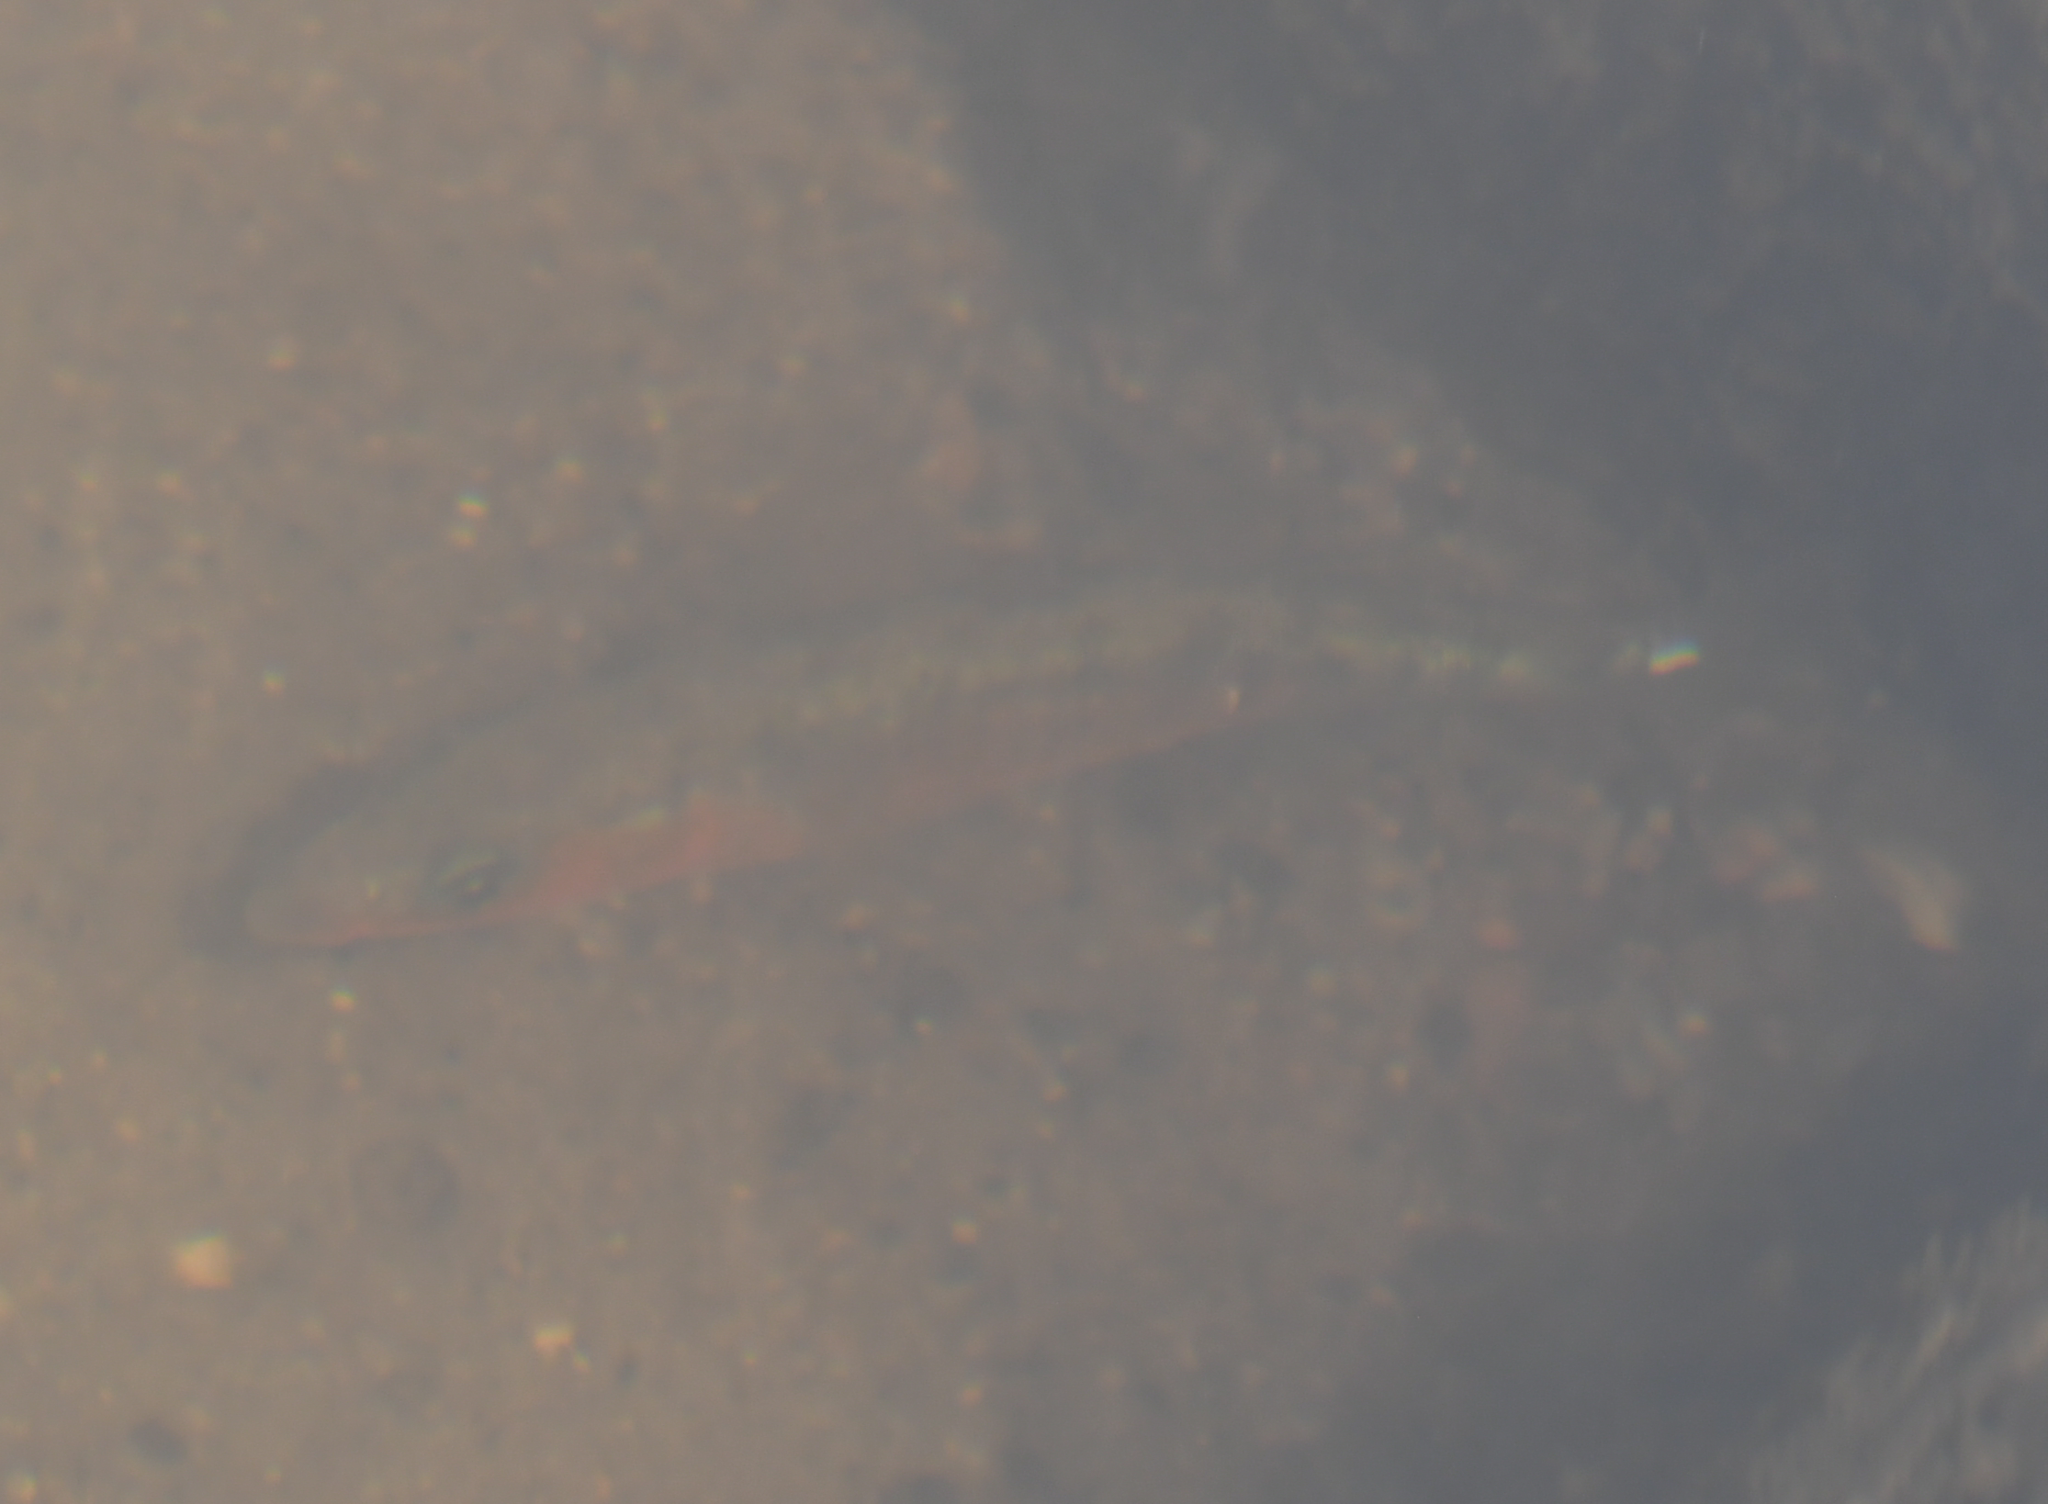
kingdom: Animalia
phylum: Chordata
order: Gasterosteiformes
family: Gasterosteidae
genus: Gasterosteus
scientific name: Gasterosteus aculeatus
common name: Three-spined stickleback
